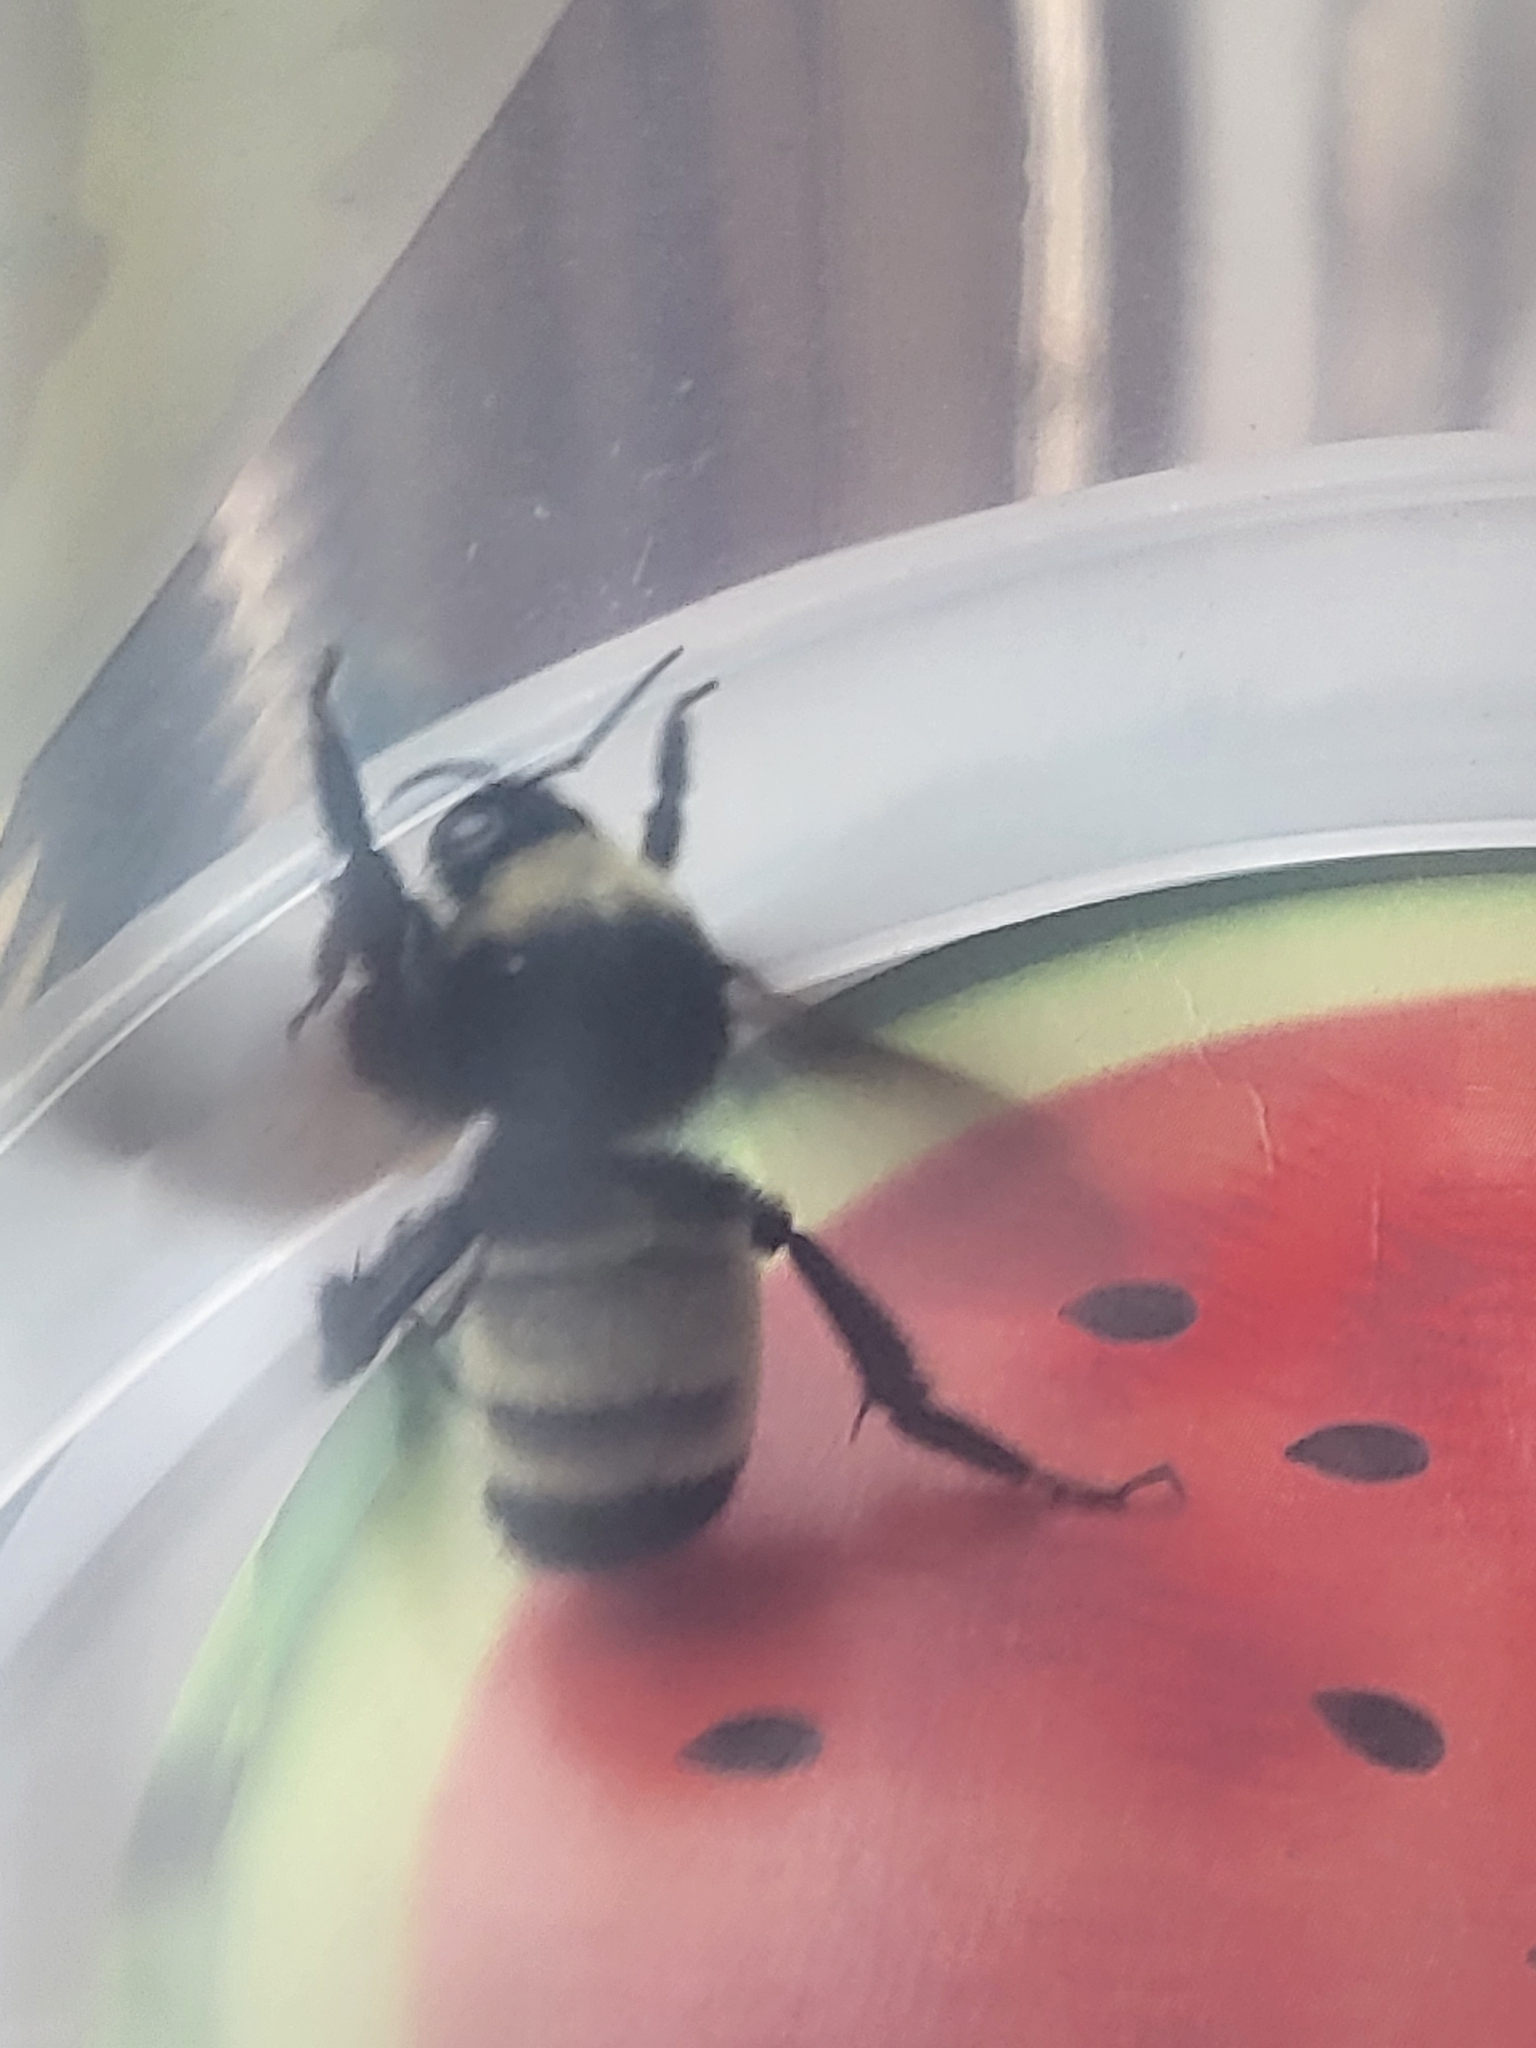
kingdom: Animalia
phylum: Arthropoda
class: Insecta
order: Hymenoptera
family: Apidae
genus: Bombus
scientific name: Bombus pensylvanicus
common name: Bumble bee
